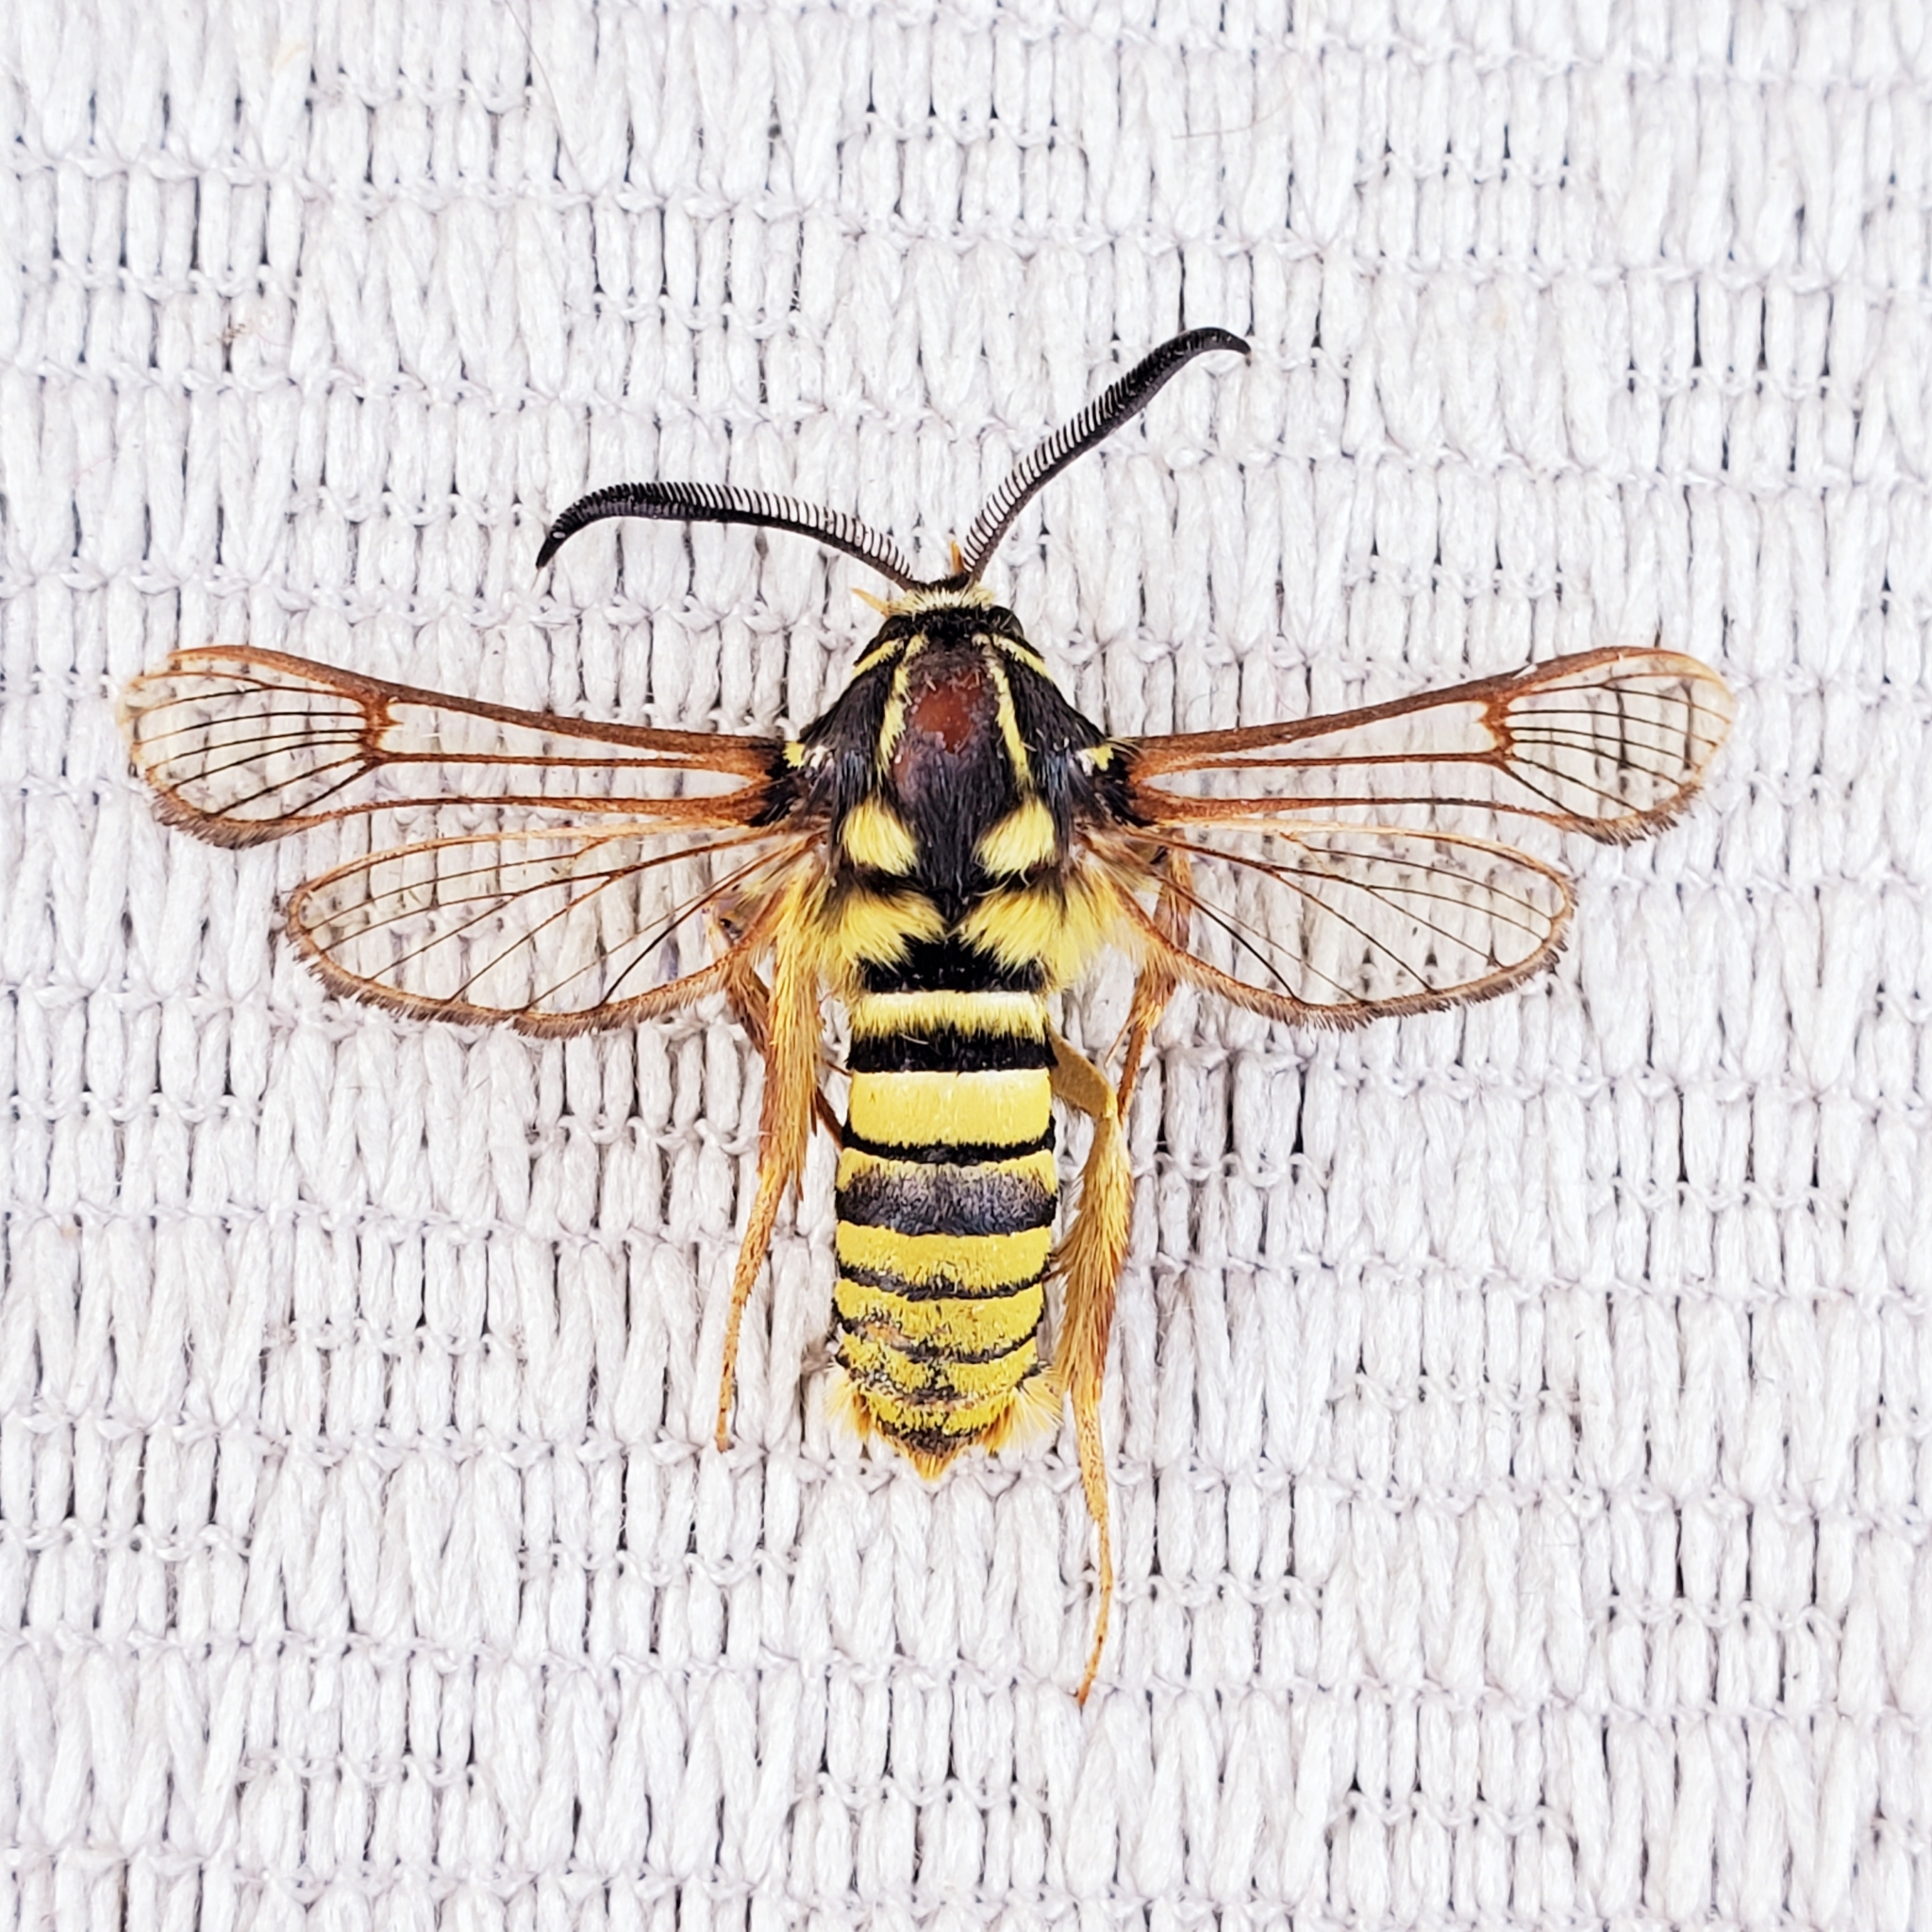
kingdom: Animalia
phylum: Arthropoda
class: Insecta
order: Lepidoptera
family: Sesiidae
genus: Sesia
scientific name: Sesia tibiale
